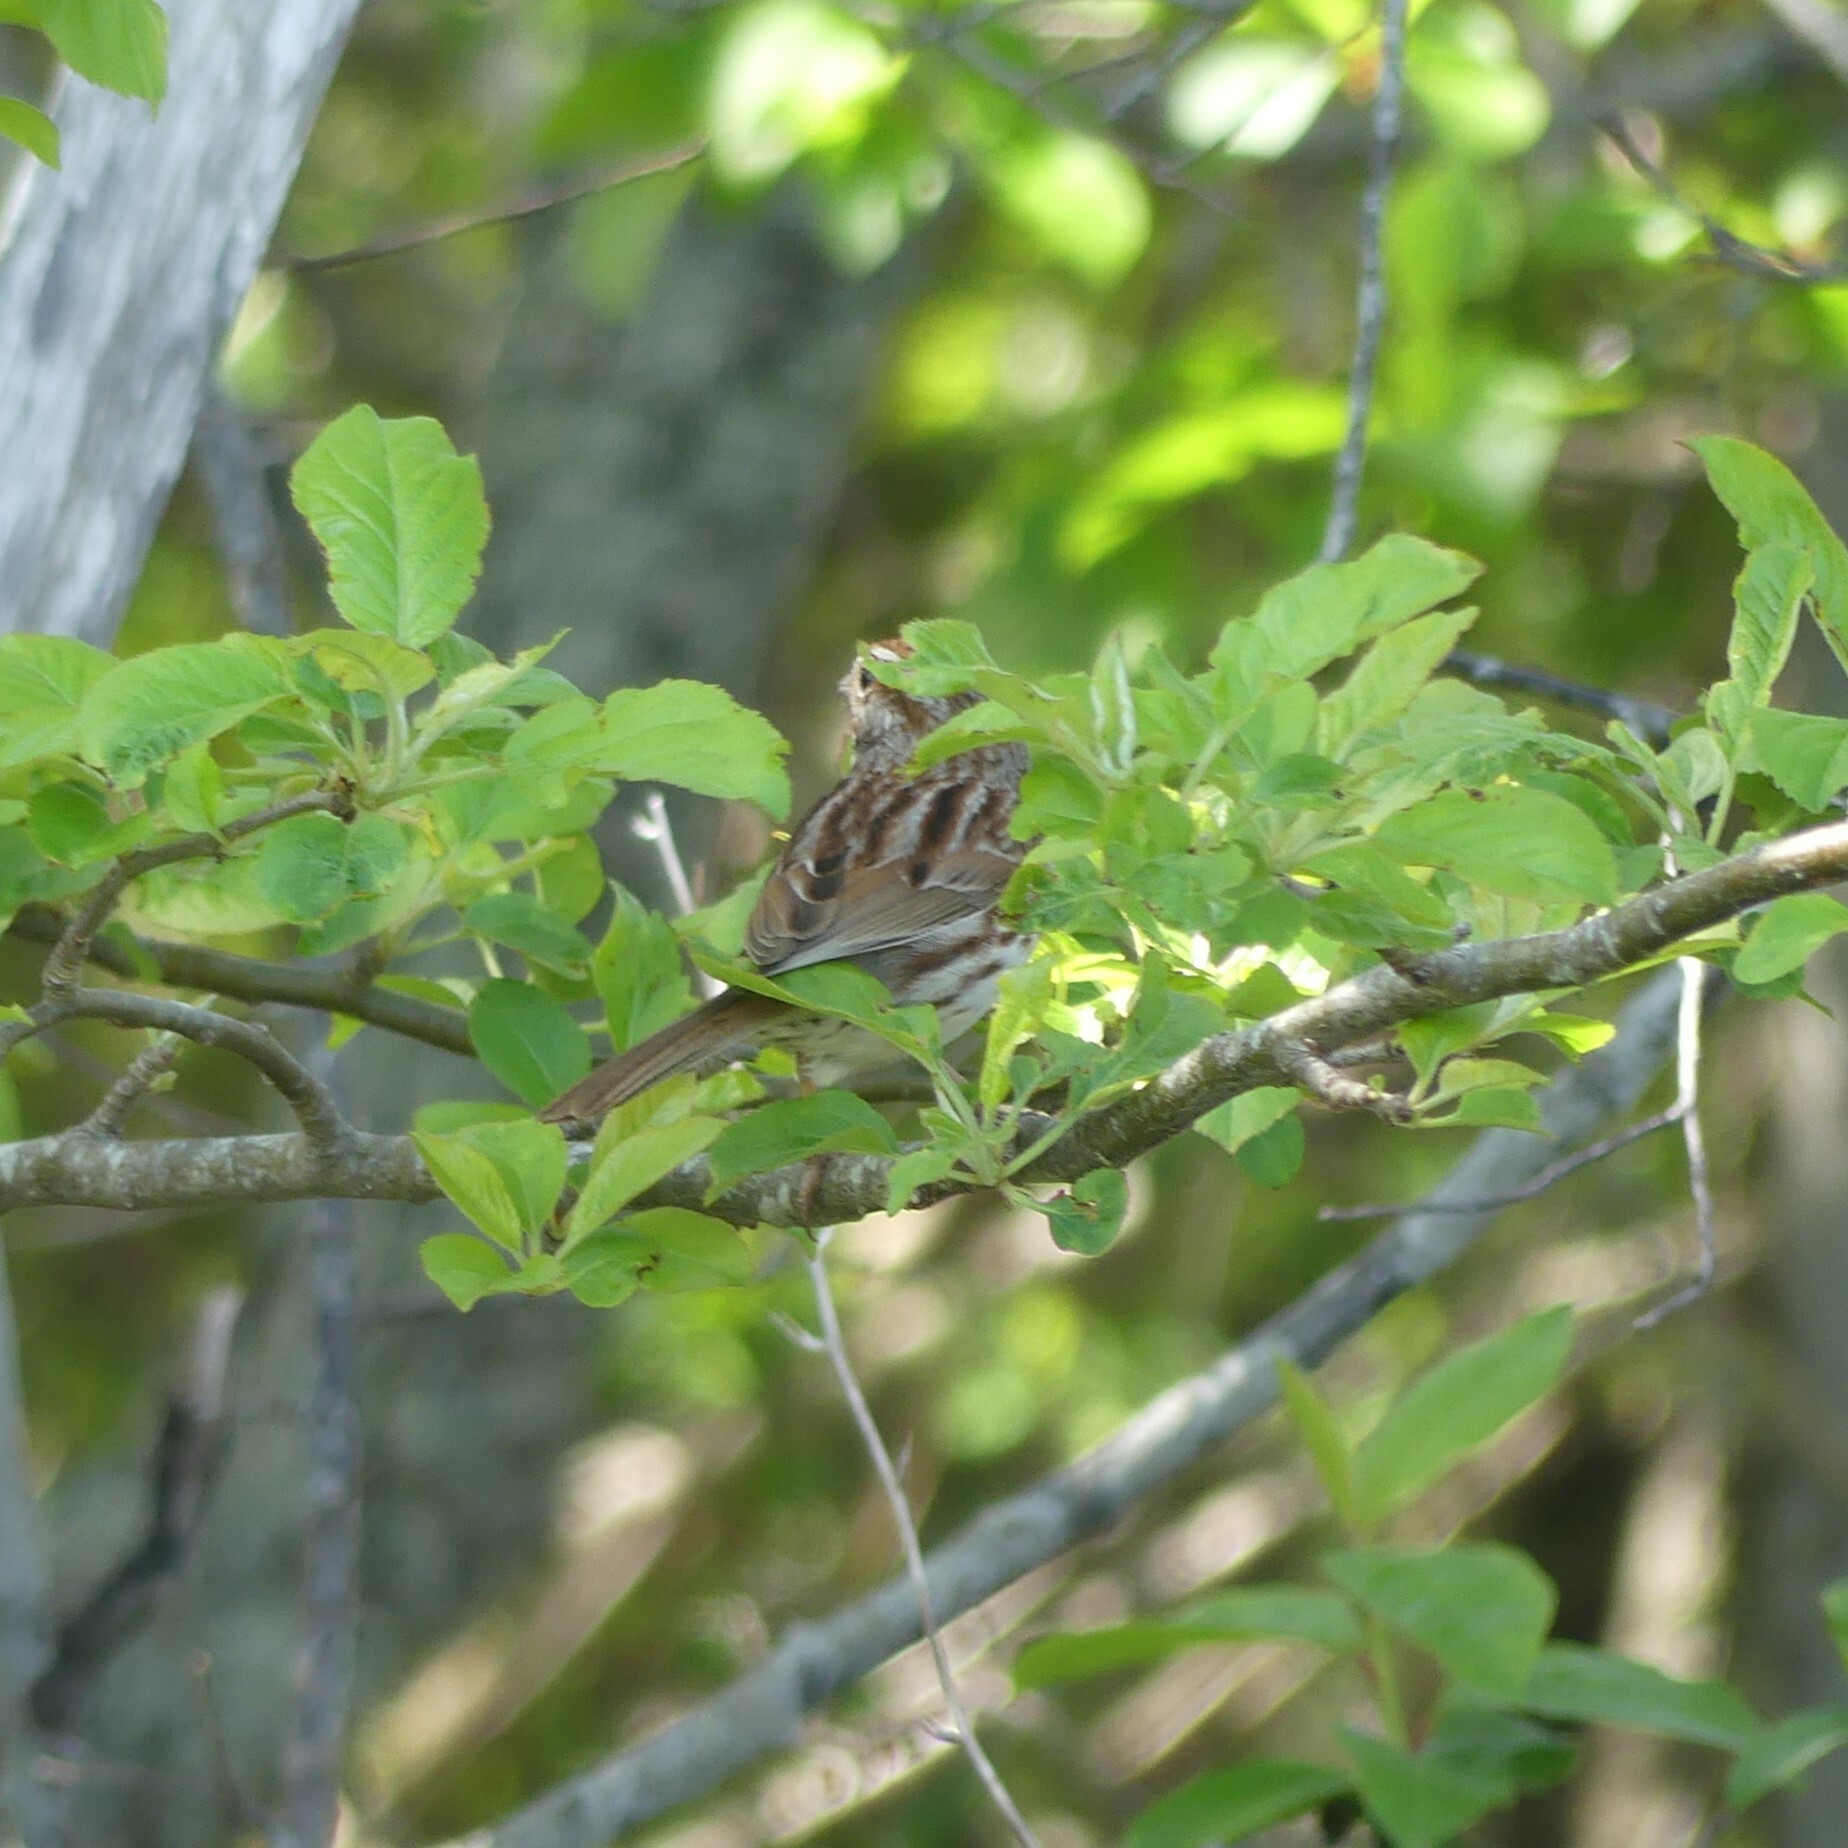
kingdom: Animalia
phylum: Chordata
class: Aves
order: Passeriformes
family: Passerellidae
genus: Melospiza
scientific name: Melospiza melodia
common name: Song sparrow
